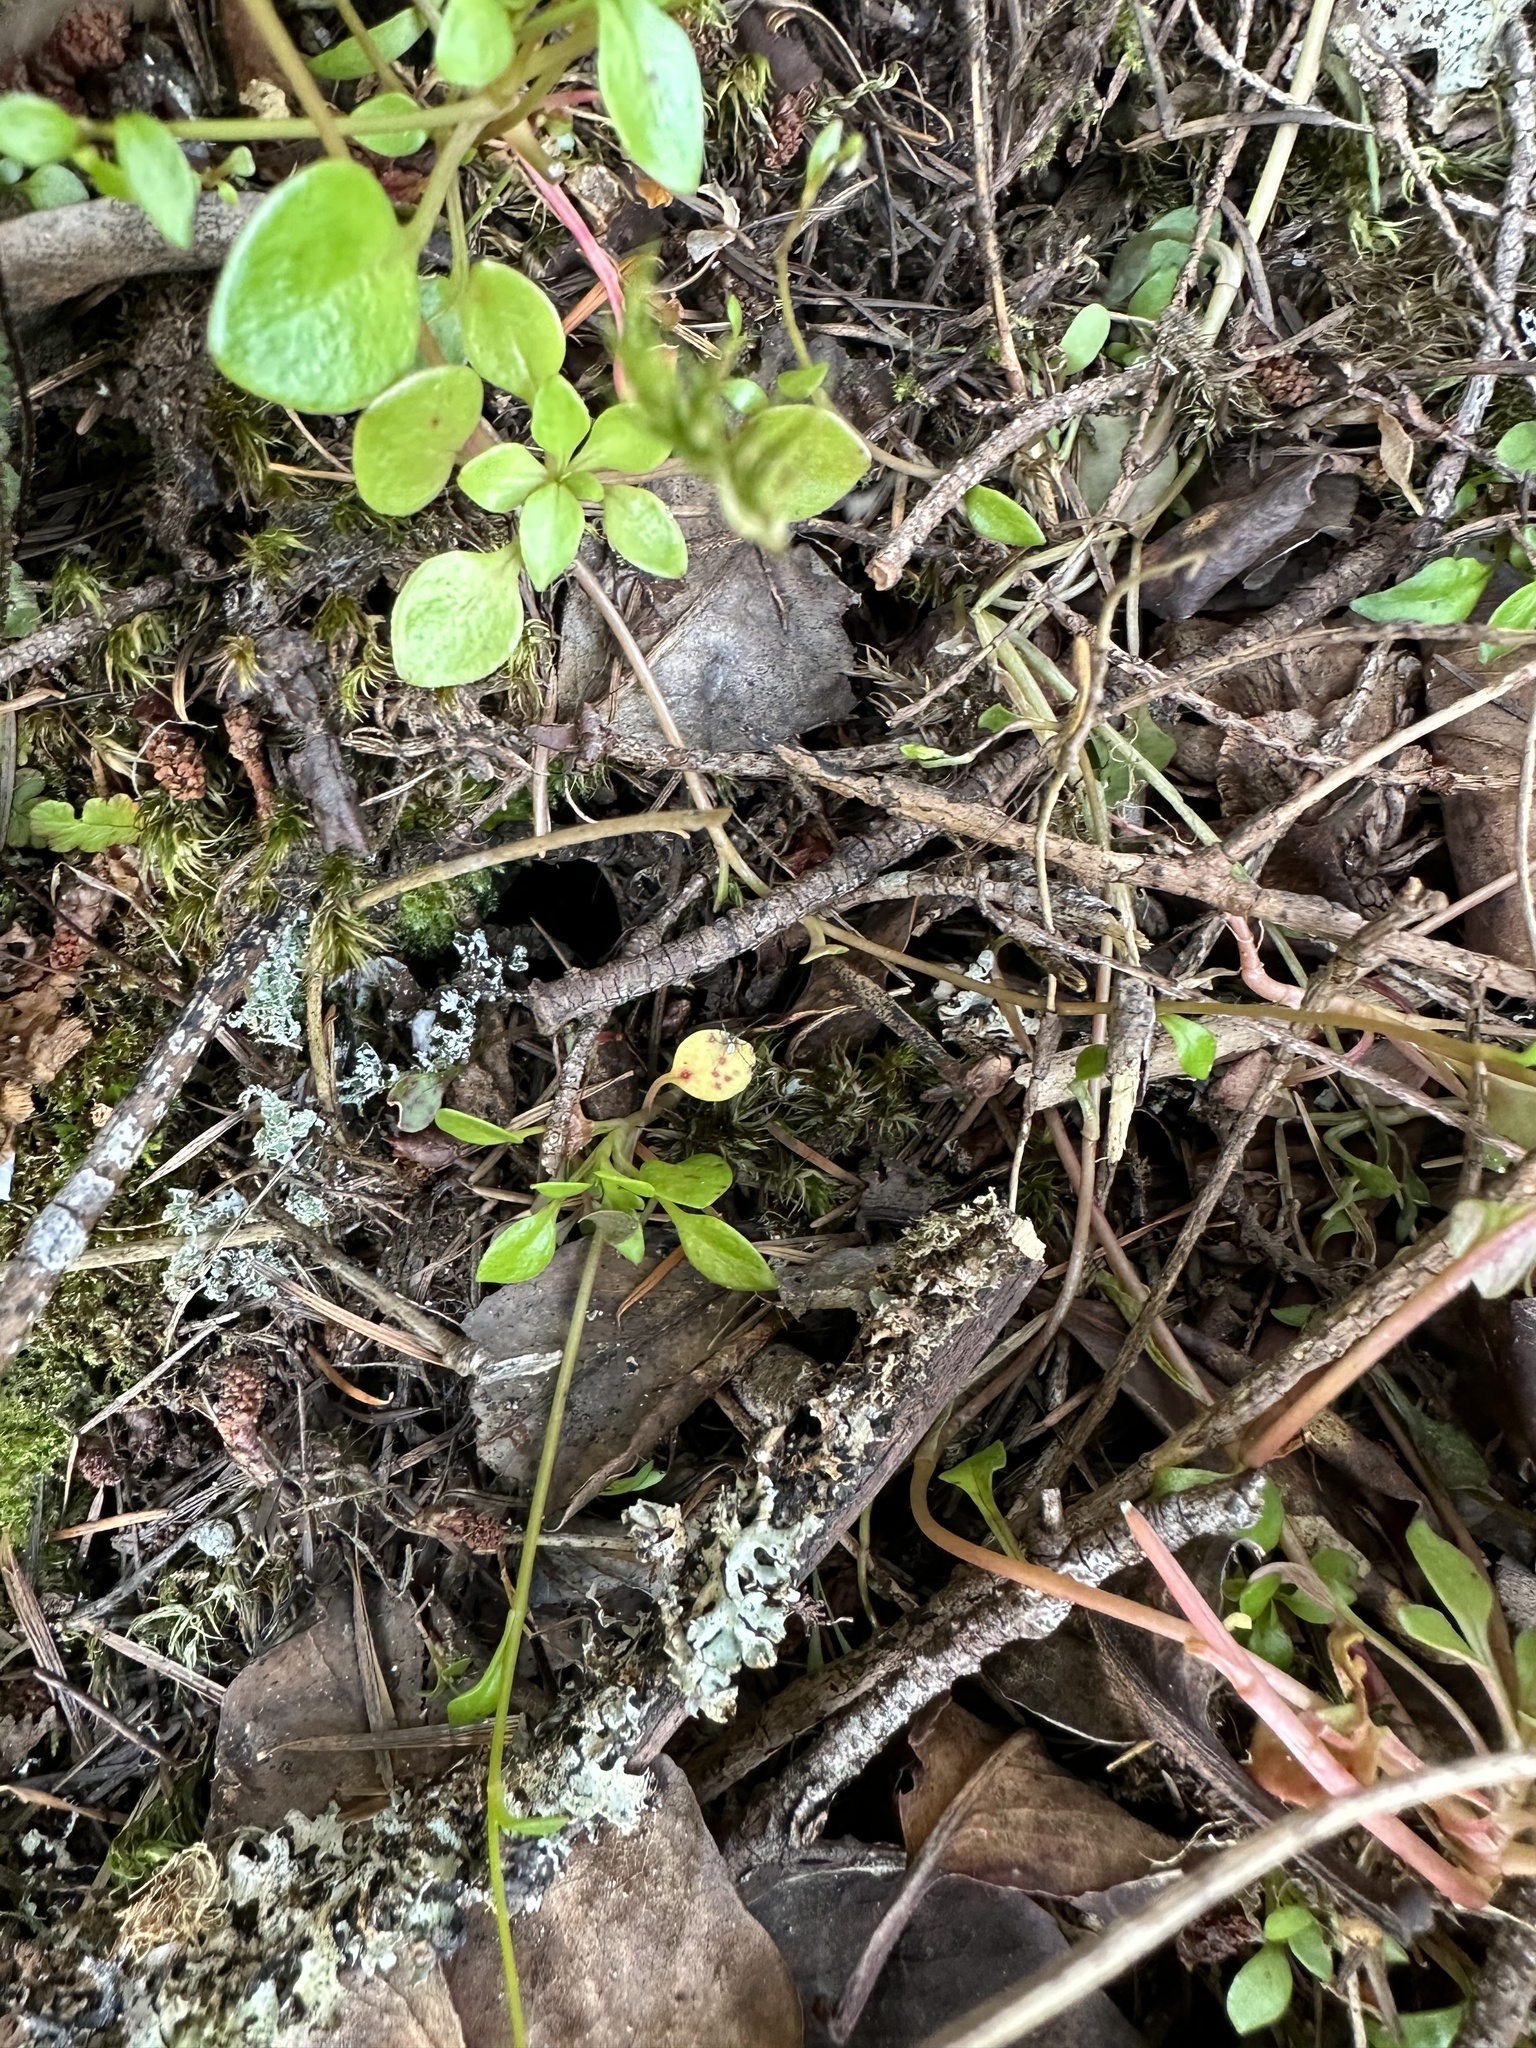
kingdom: Plantae
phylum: Tracheophyta
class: Magnoliopsida
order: Caryophyllales
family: Montiaceae
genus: Montia
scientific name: Montia parvifolia
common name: Small-leaved blinks
